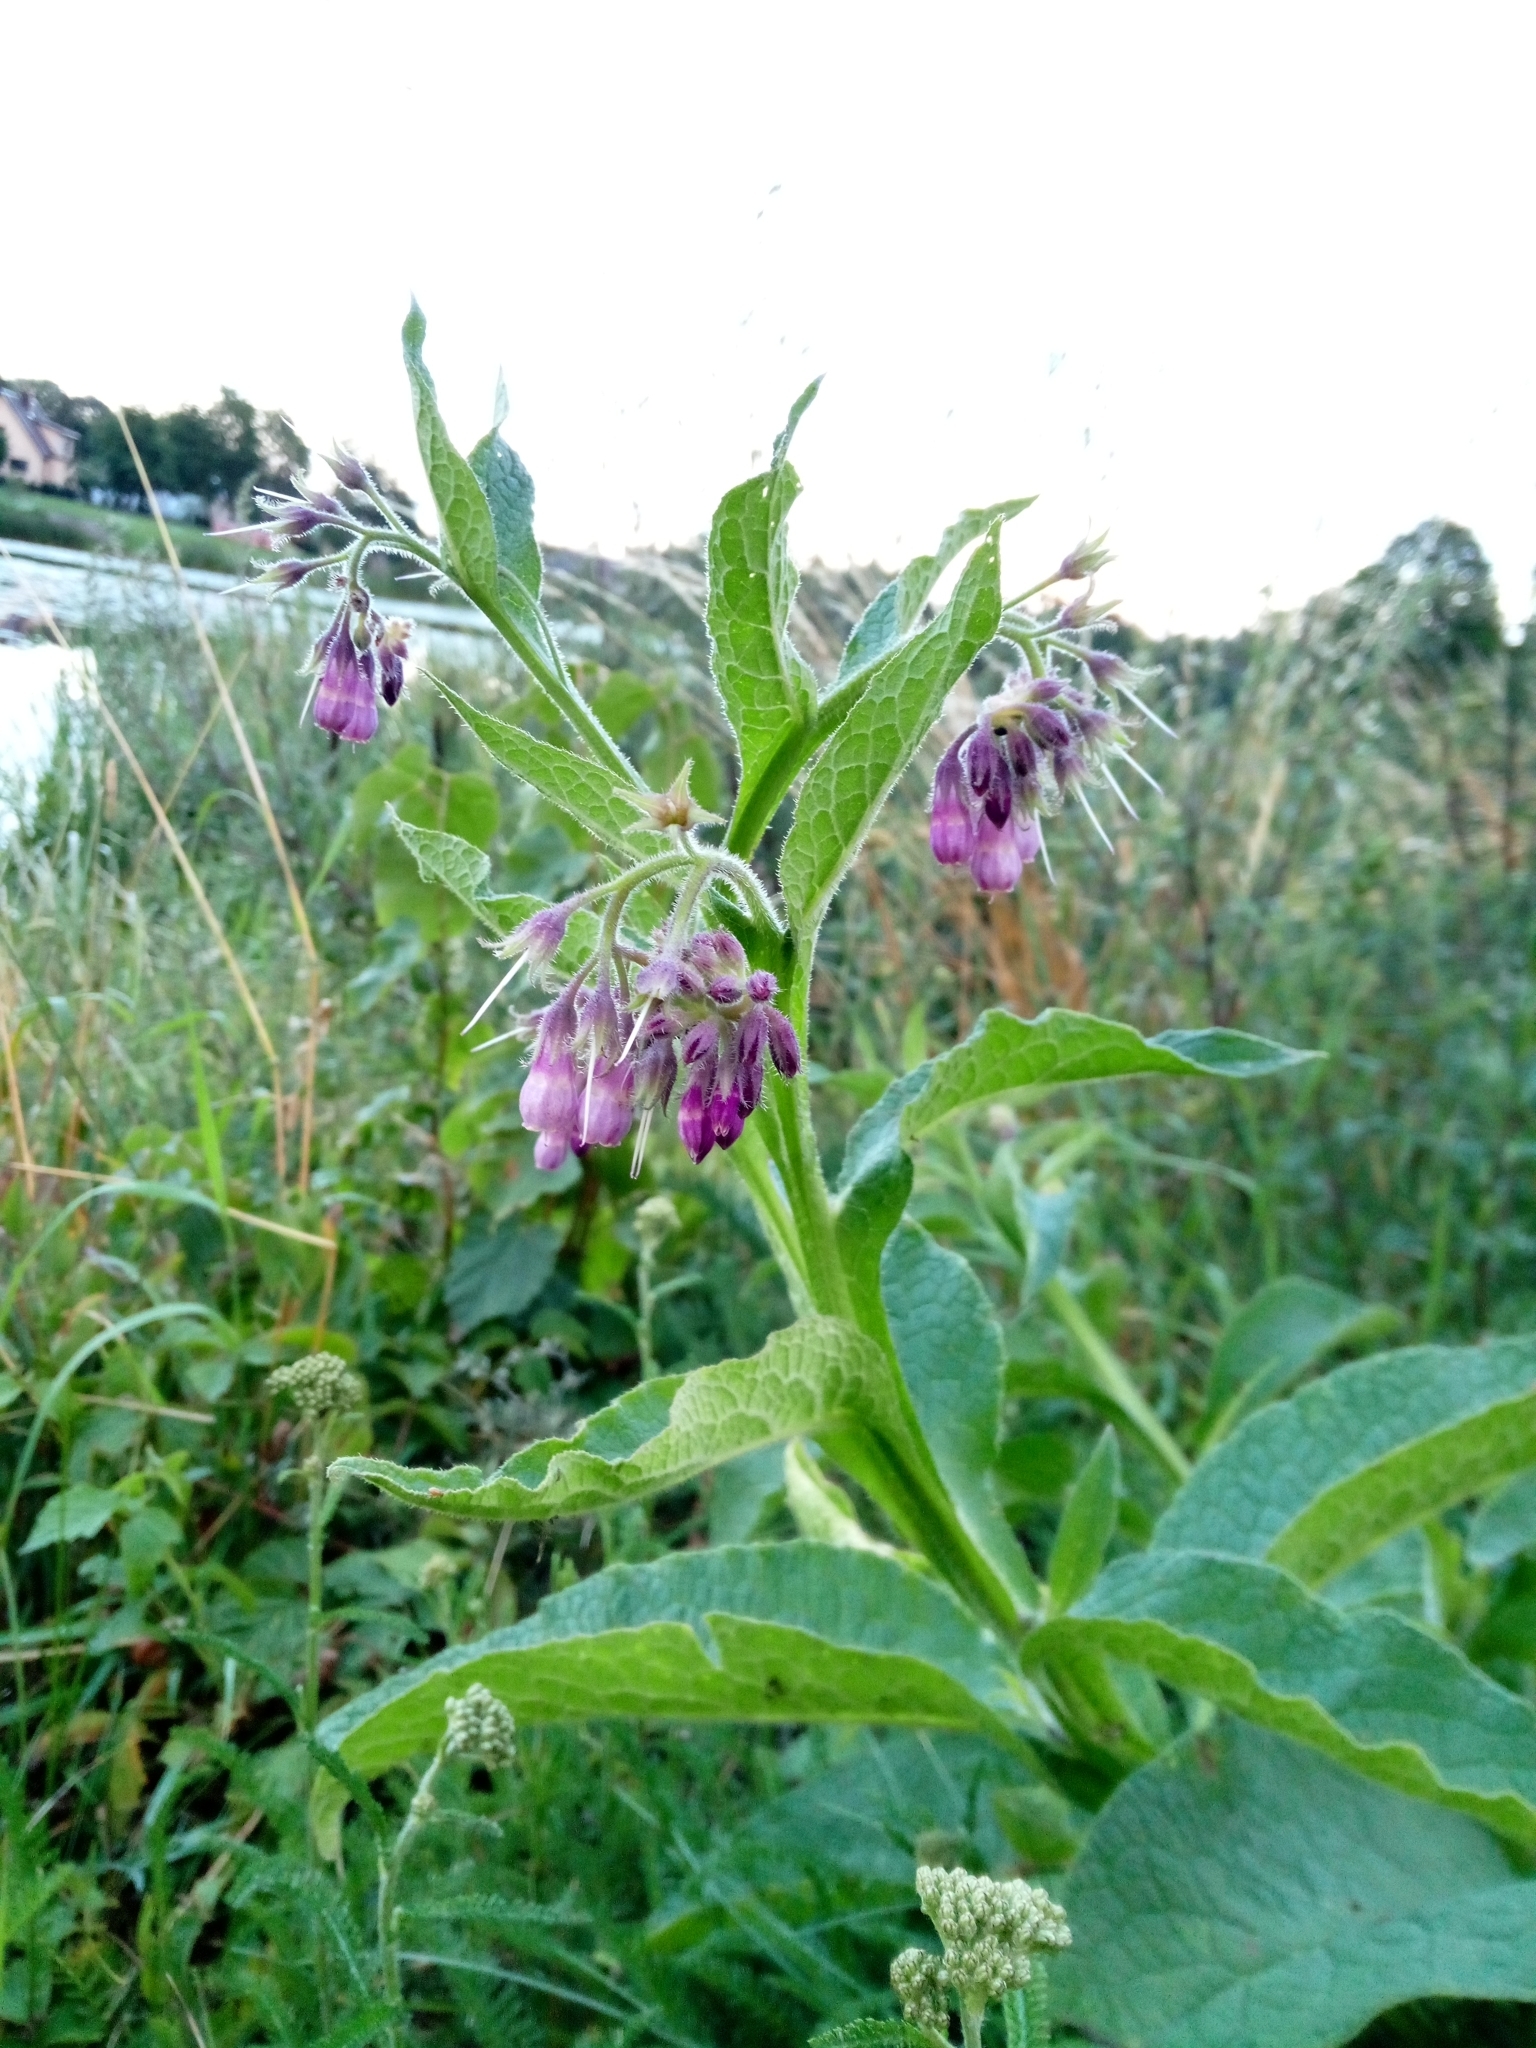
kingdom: Plantae
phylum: Tracheophyta
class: Magnoliopsida
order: Boraginales
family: Boraginaceae
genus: Symphytum
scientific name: Symphytum officinale
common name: Common comfrey
